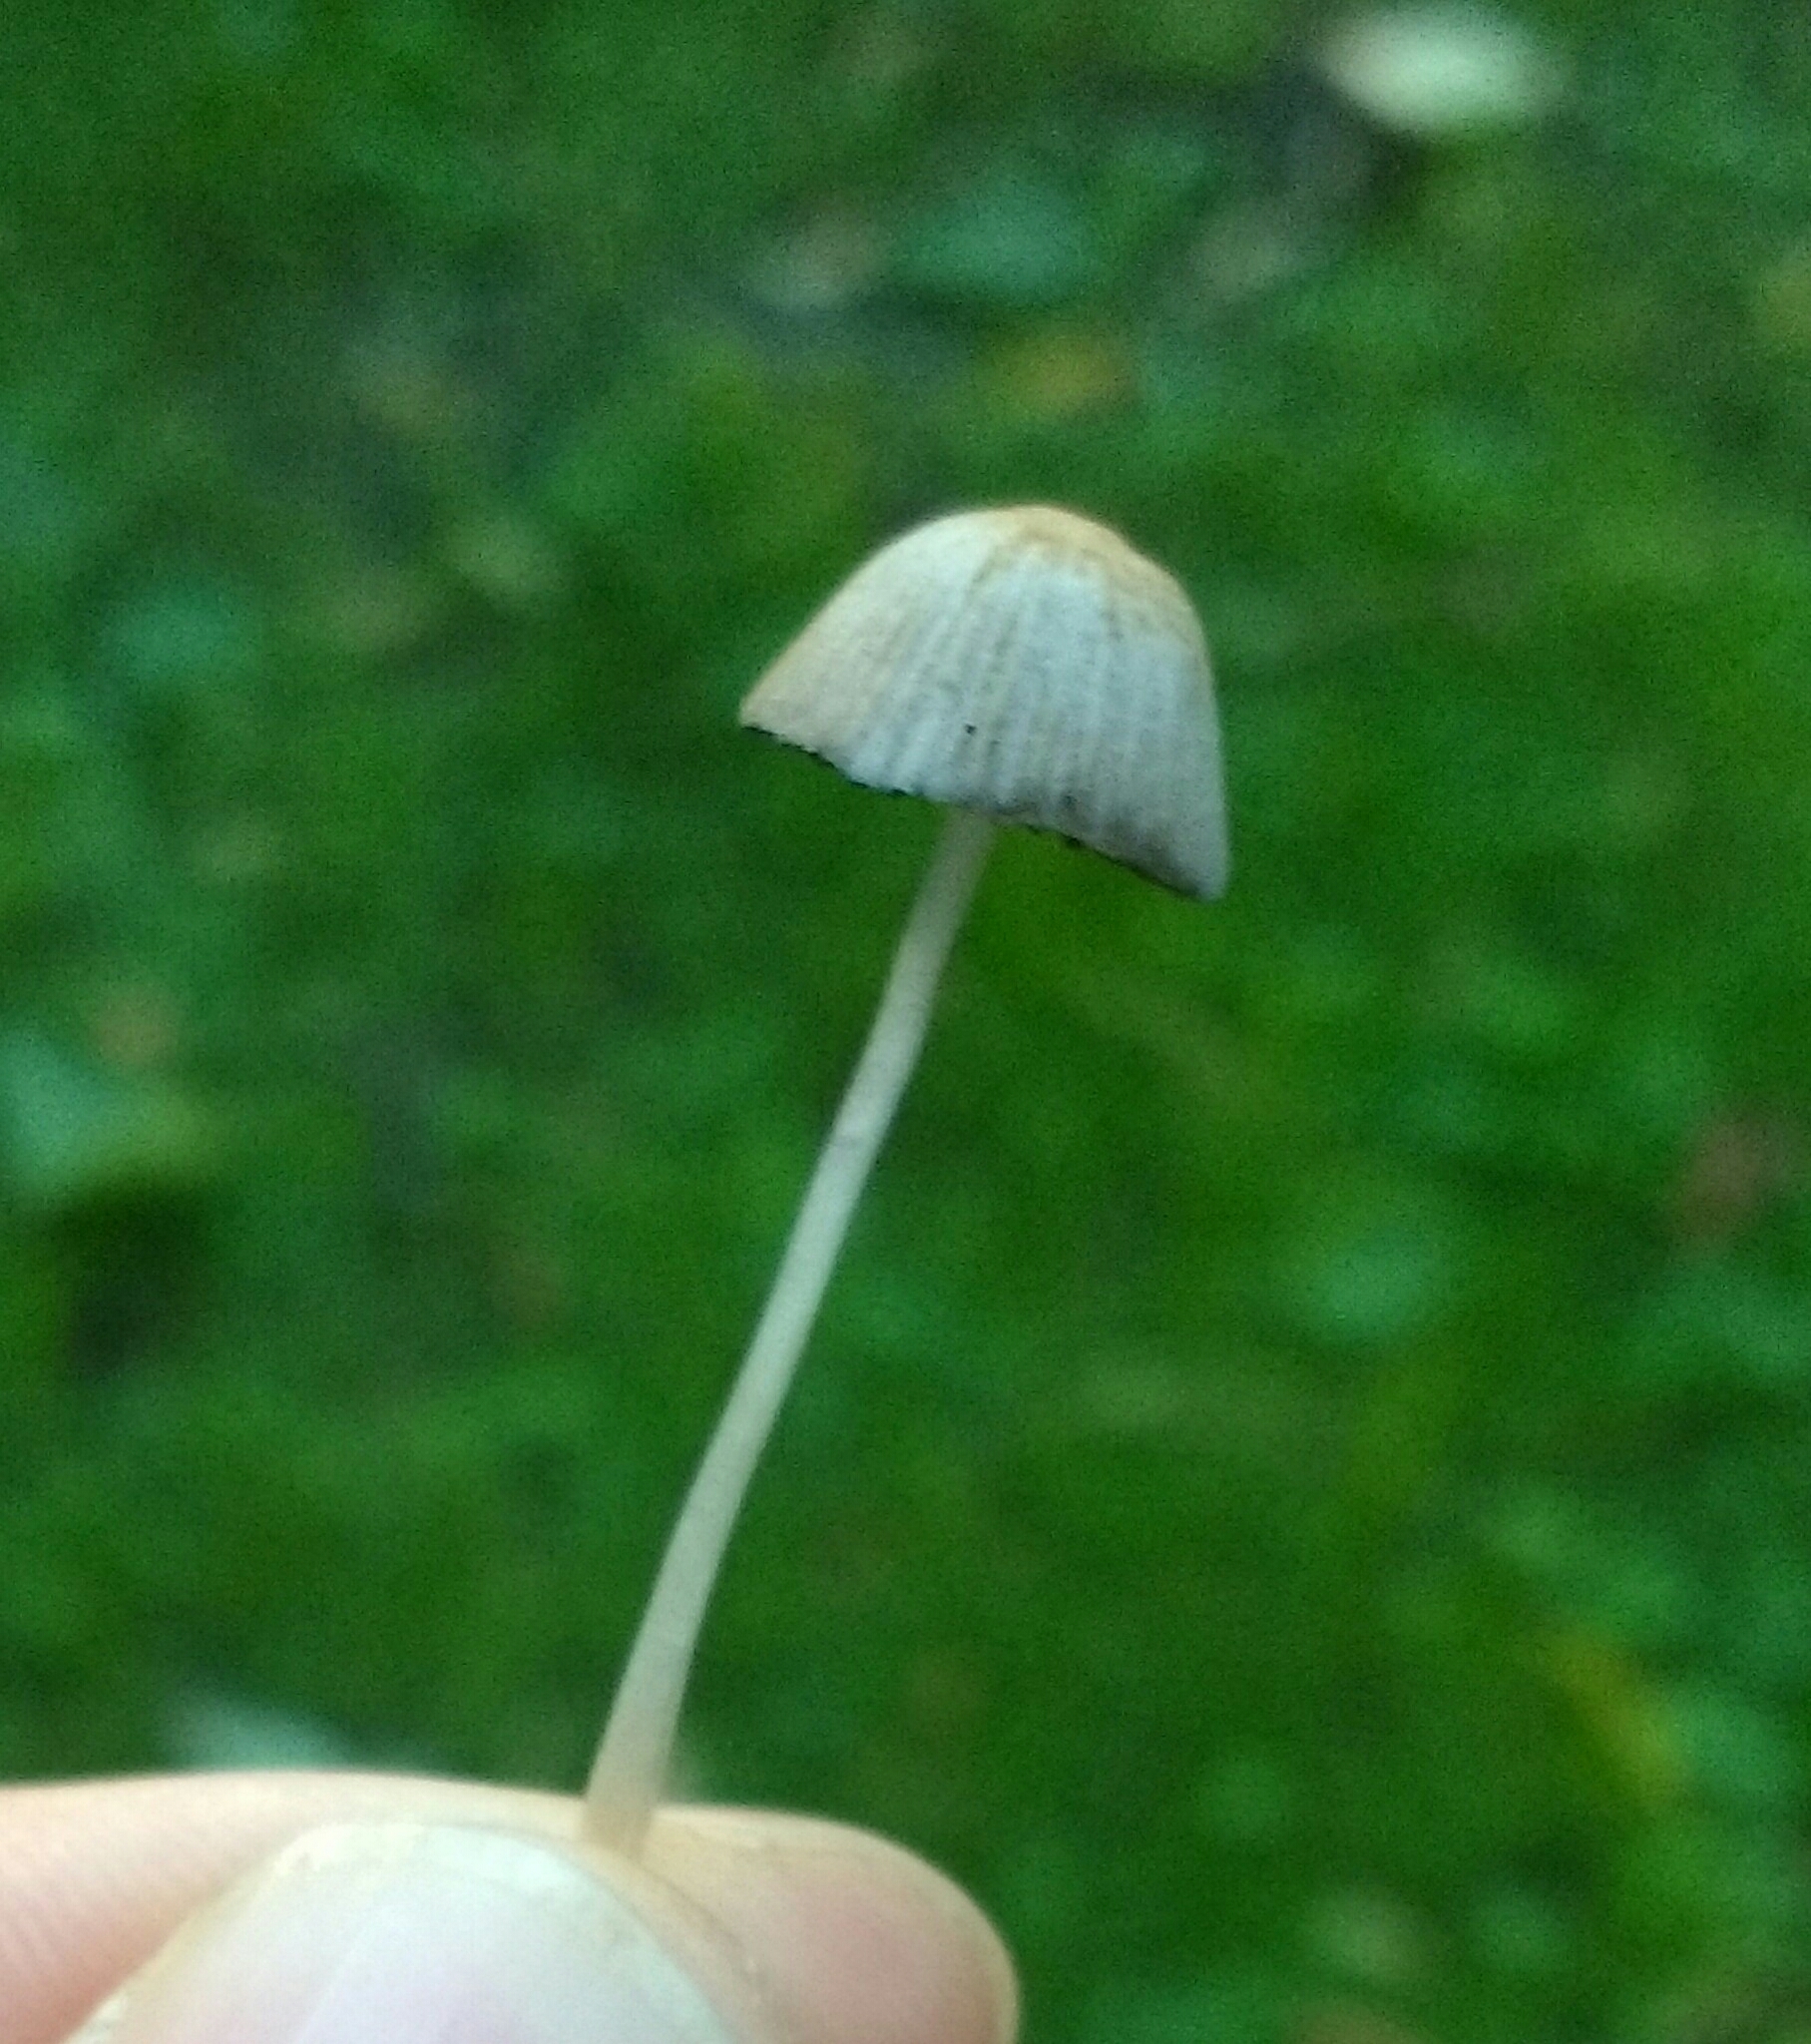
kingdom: Fungi
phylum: Basidiomycota
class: Agaricomycetes
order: Agaricales
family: Psathyrellaceae
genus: Psathyrella
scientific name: Psathyrella prona
